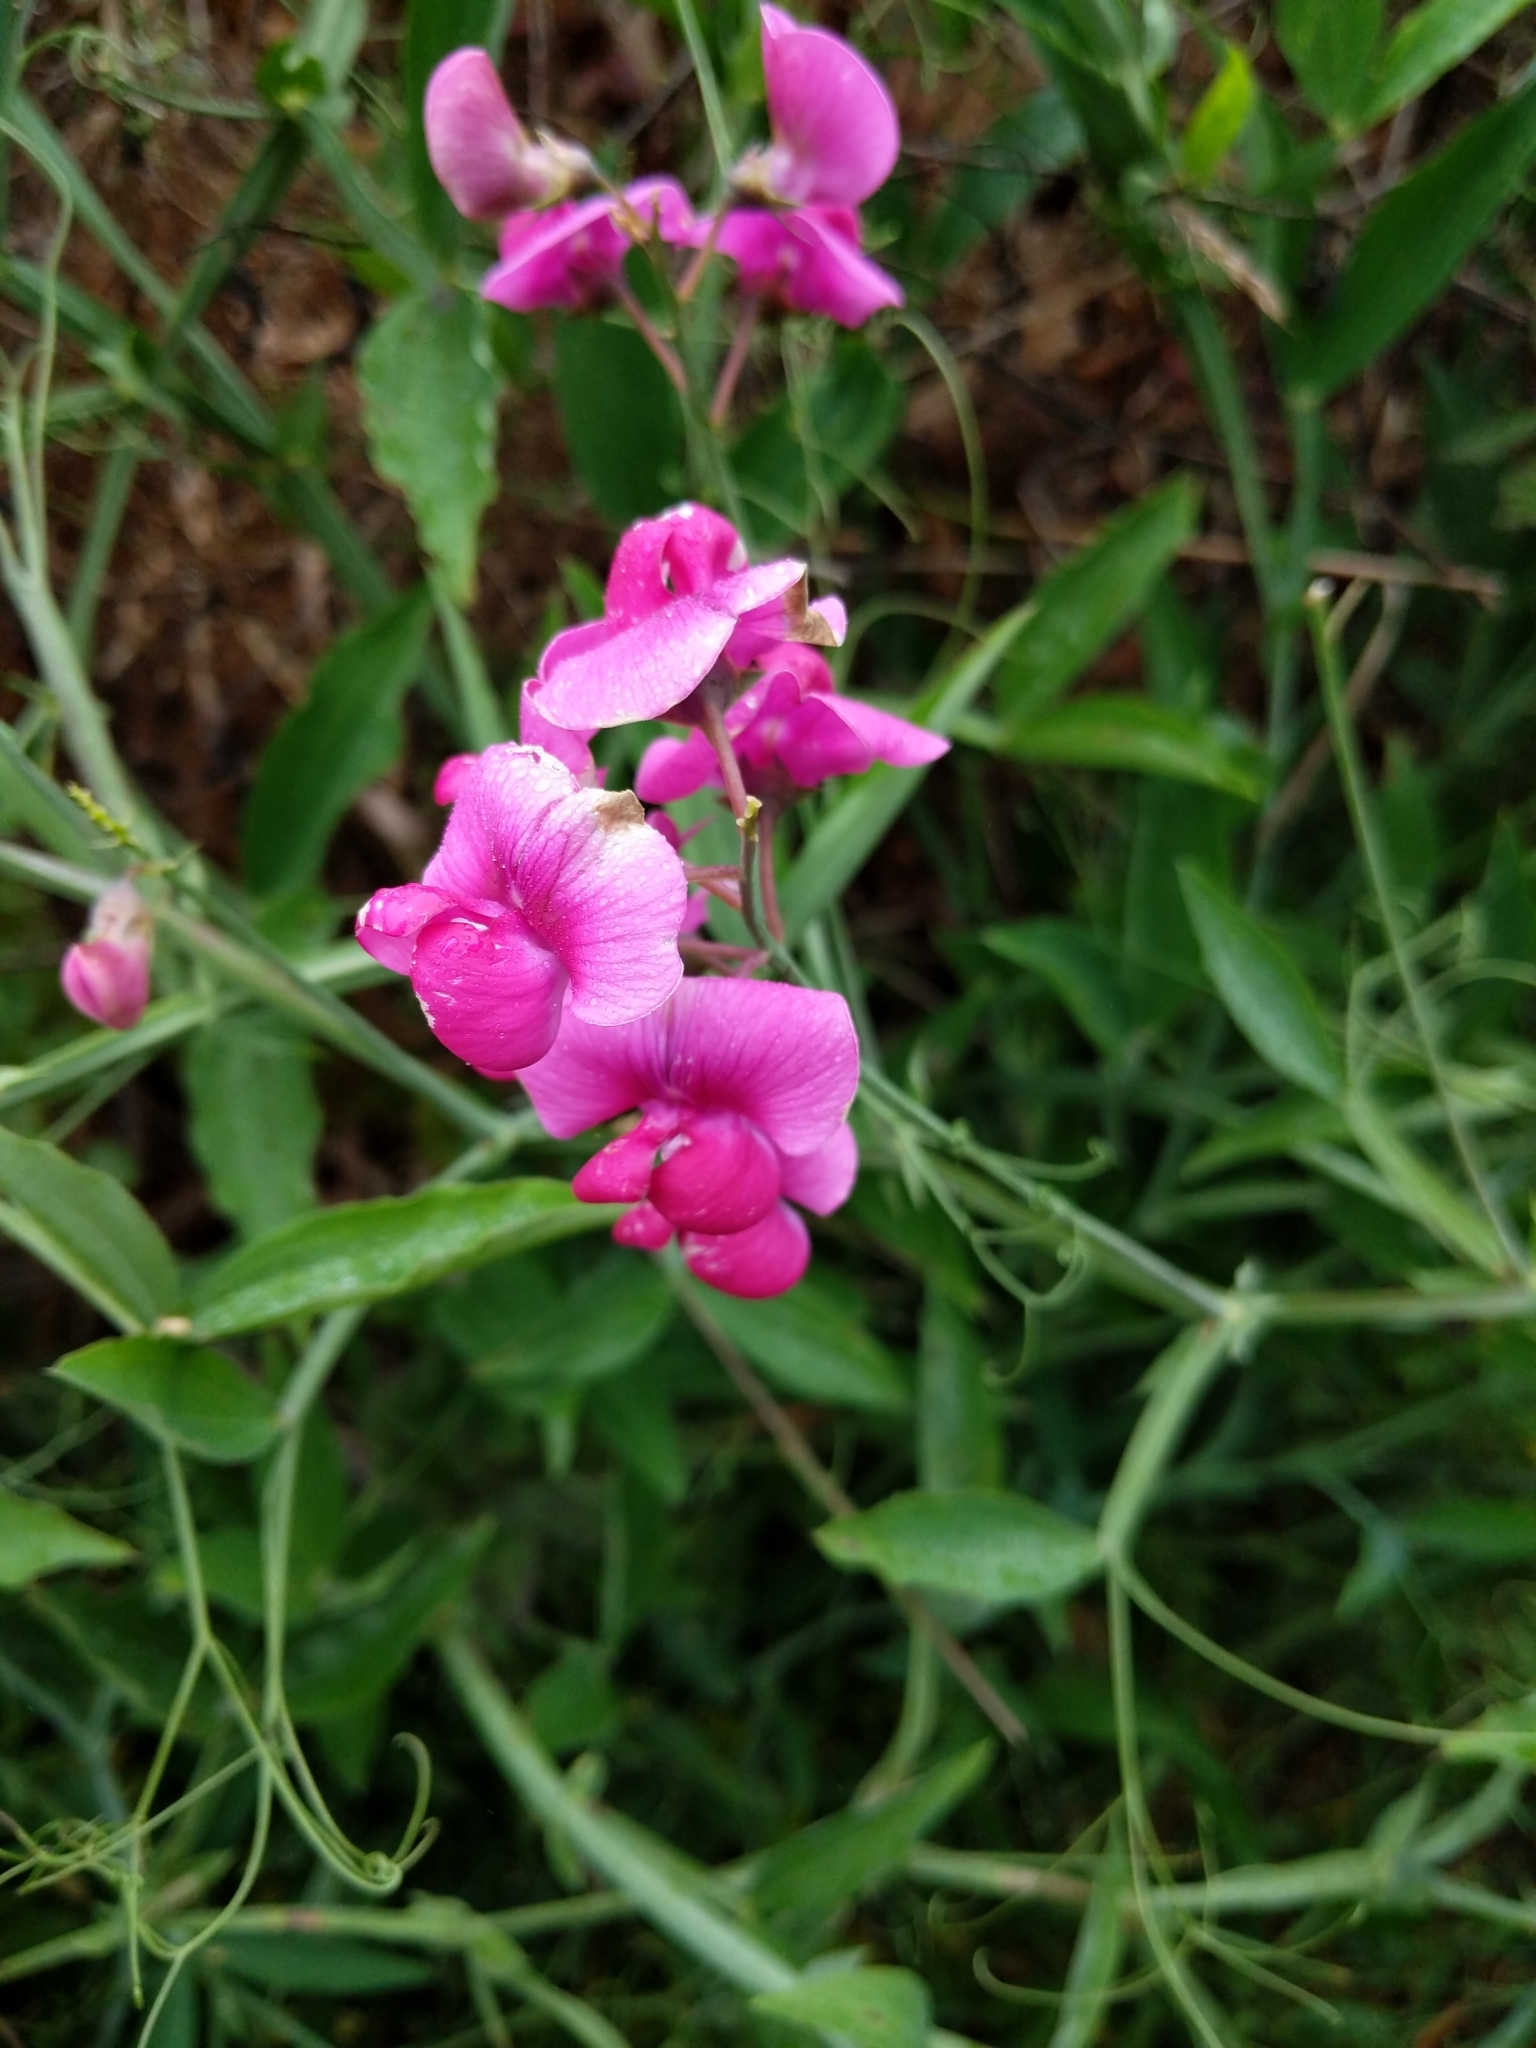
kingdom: Plantae
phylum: Tracheophyta
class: Magnoliopsida
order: Fabales
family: Fabaceae
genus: Lathyrus
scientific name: Lathyrus latifolius
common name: Perennial pea
